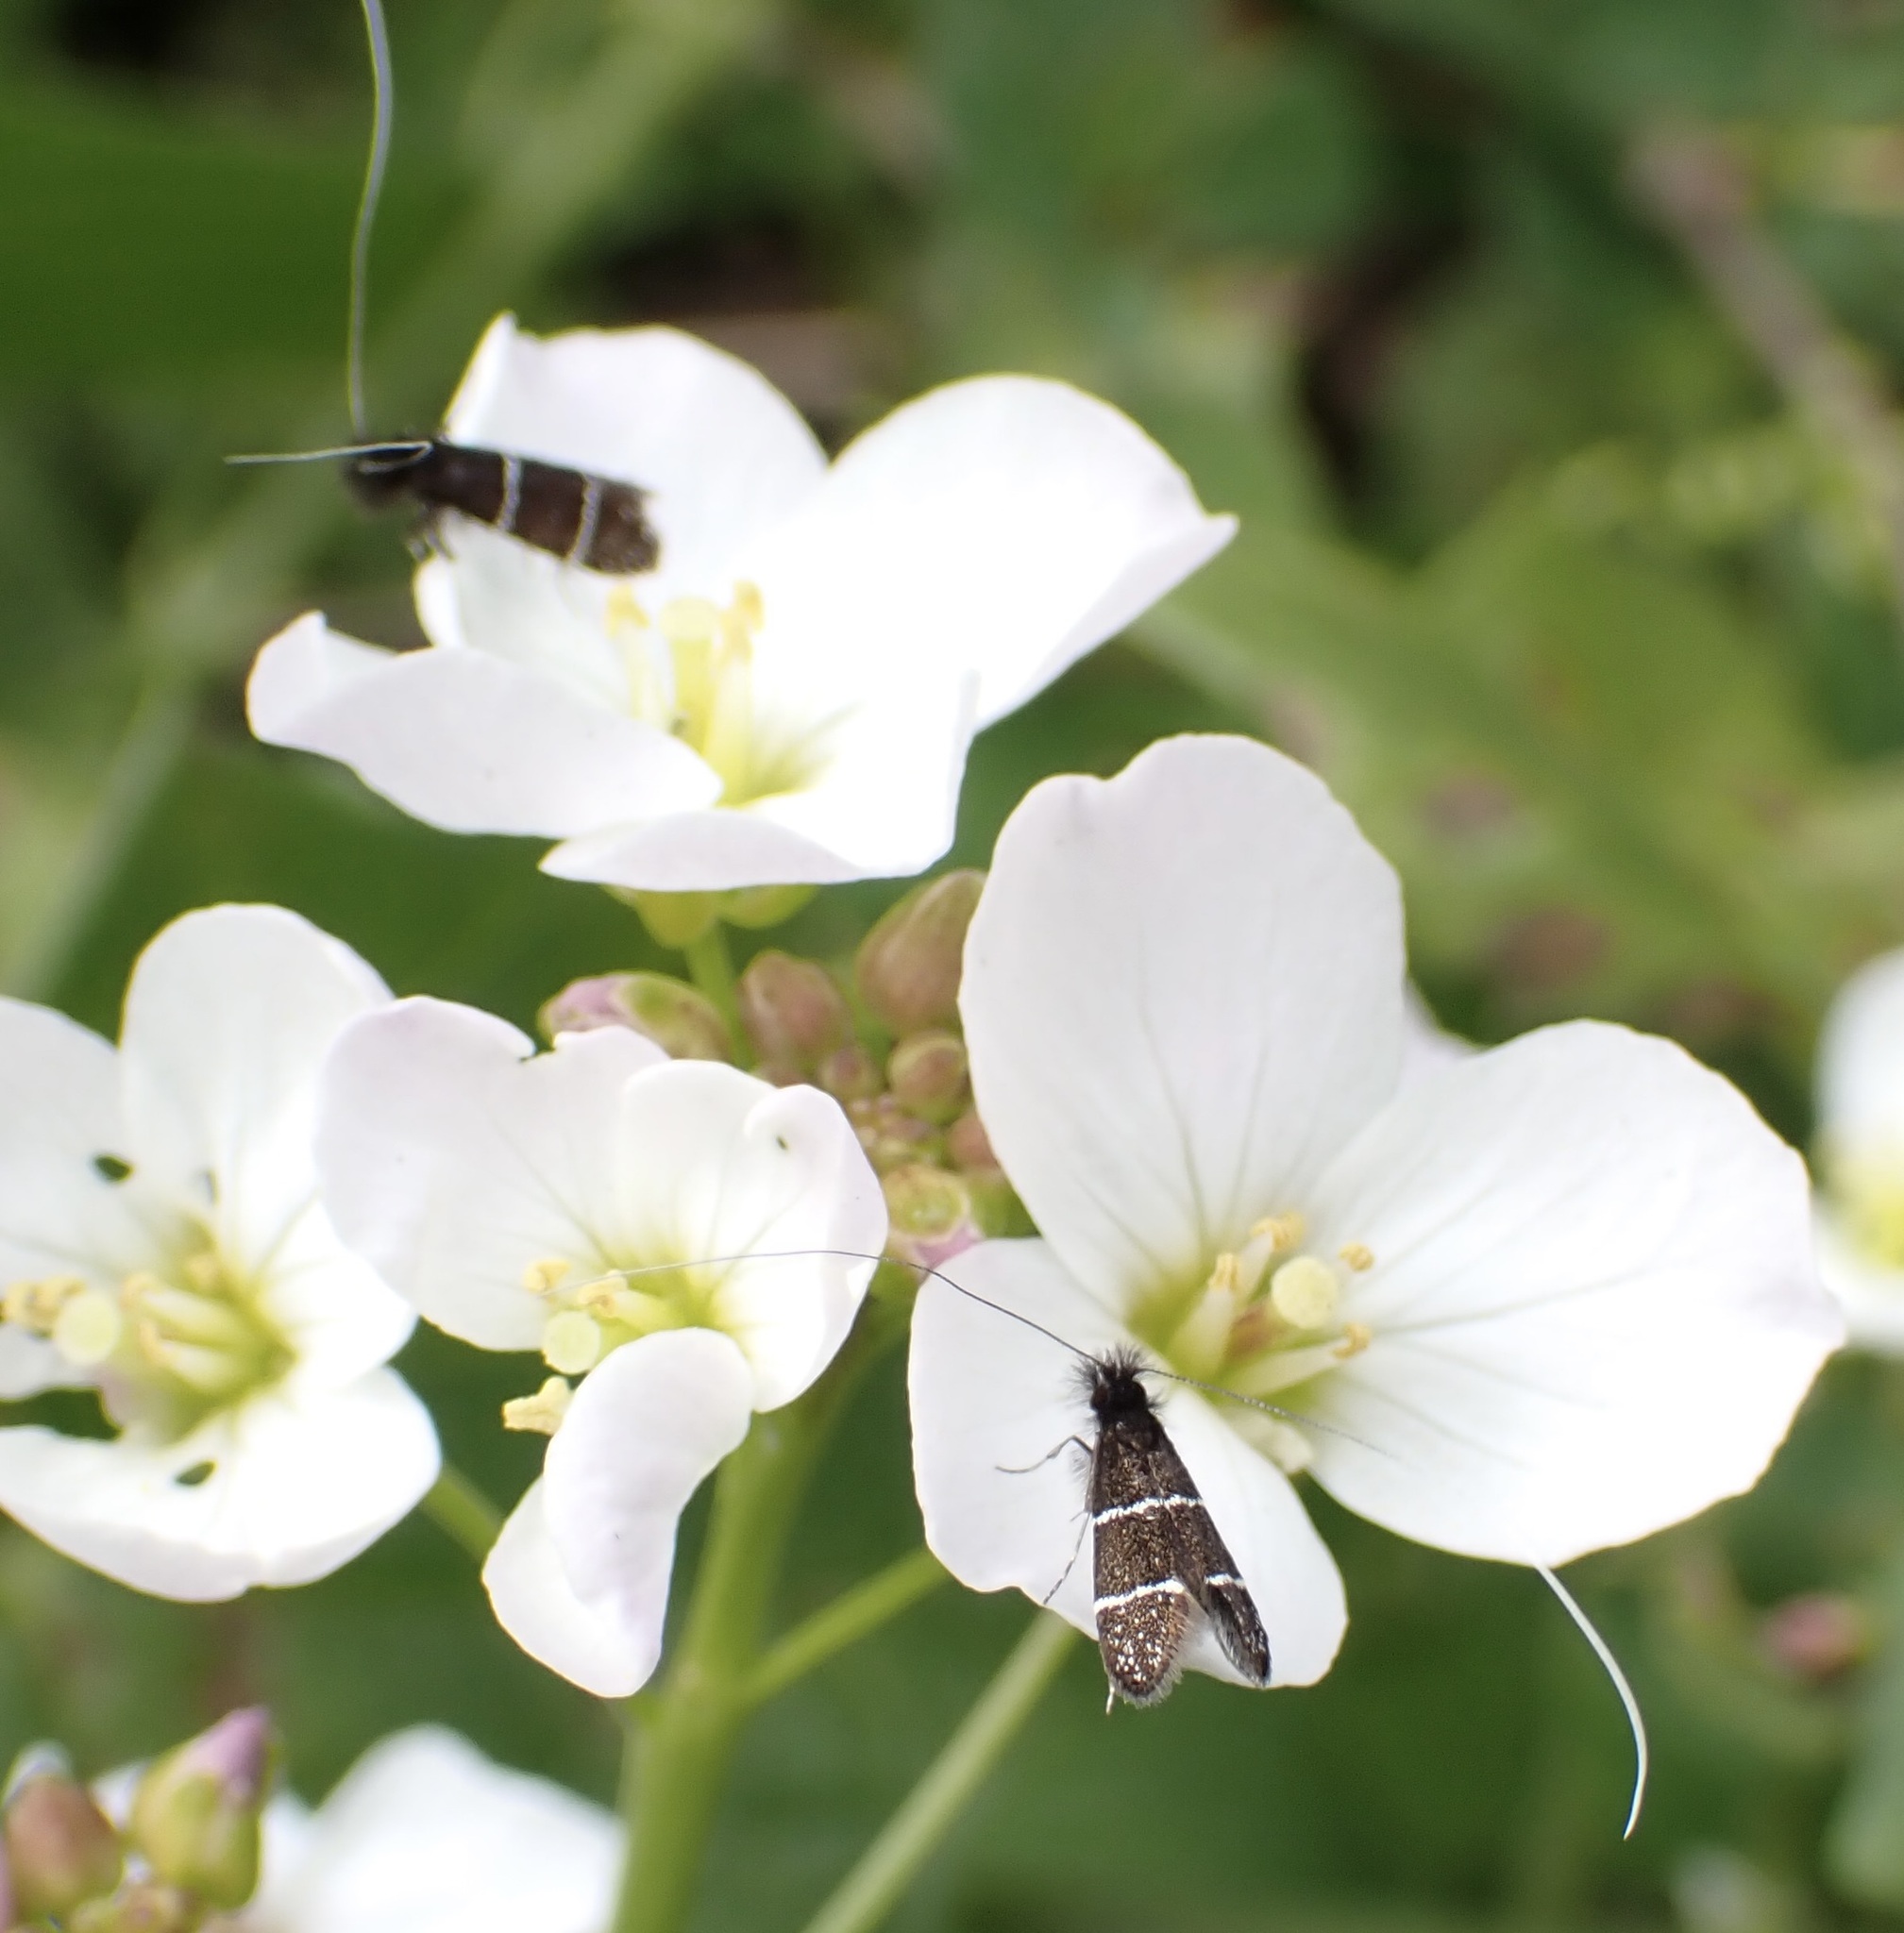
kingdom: Animalia
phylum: Arthropoda
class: Insecta
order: Lepidoptera
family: Adelidae
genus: Adela
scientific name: Adela septentrionella
